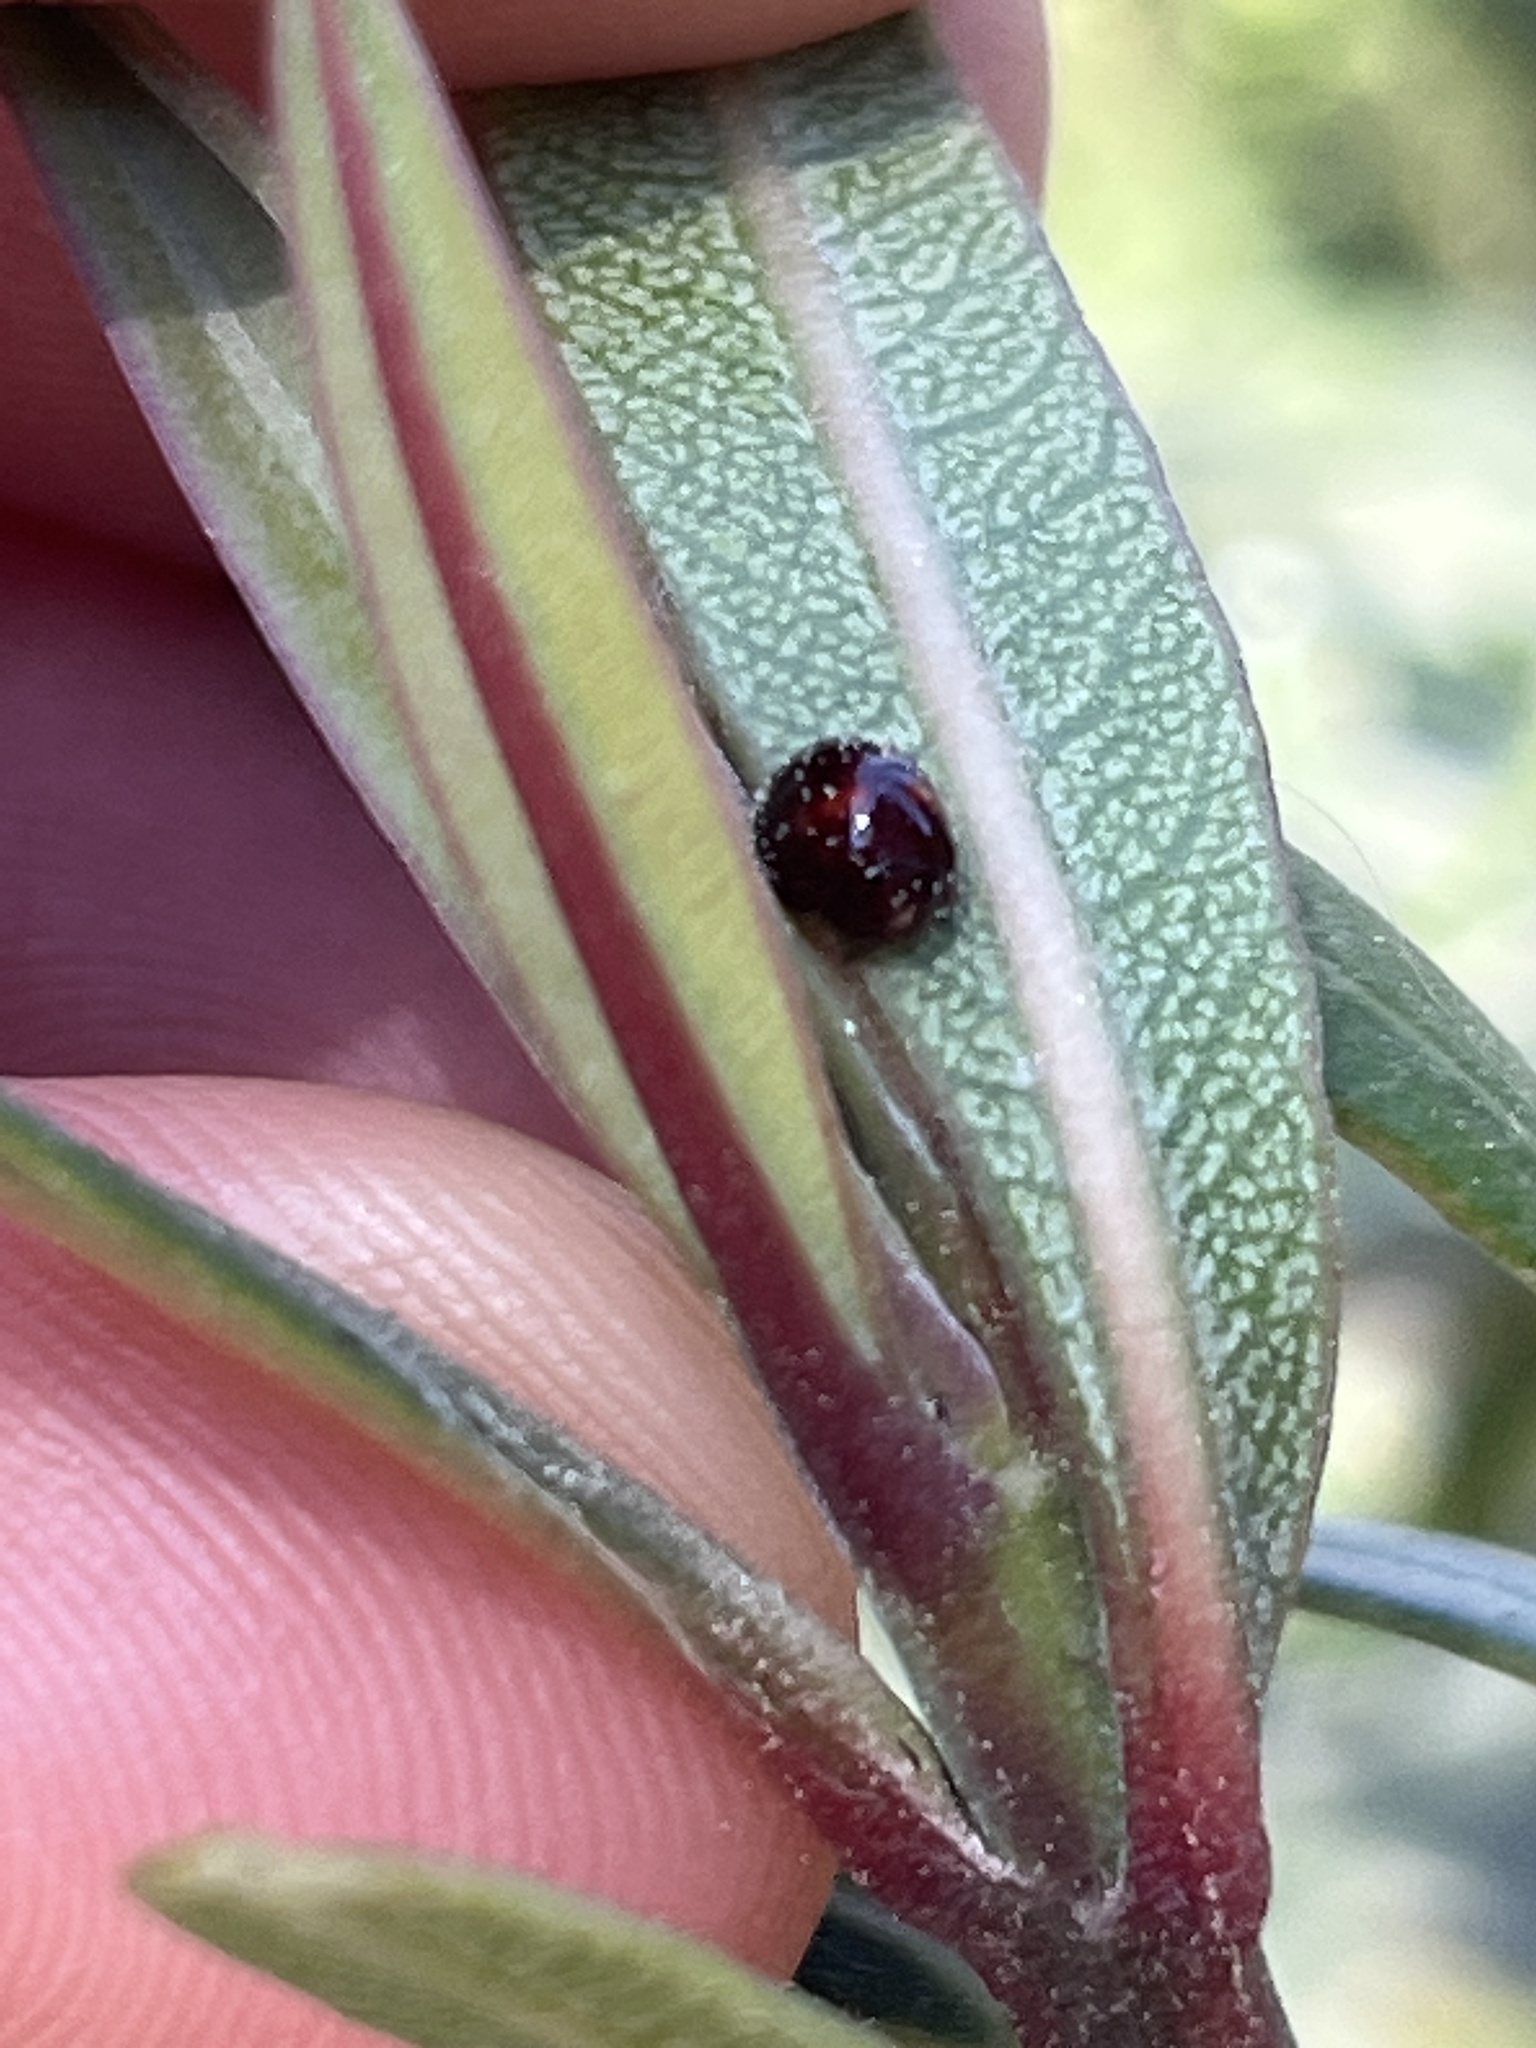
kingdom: Animalia
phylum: Arthropoda
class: Insecta
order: Coleoptera
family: Coccinellidae
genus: Chilocorus
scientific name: Chilocorus bipustulatus
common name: Heather ladybird
